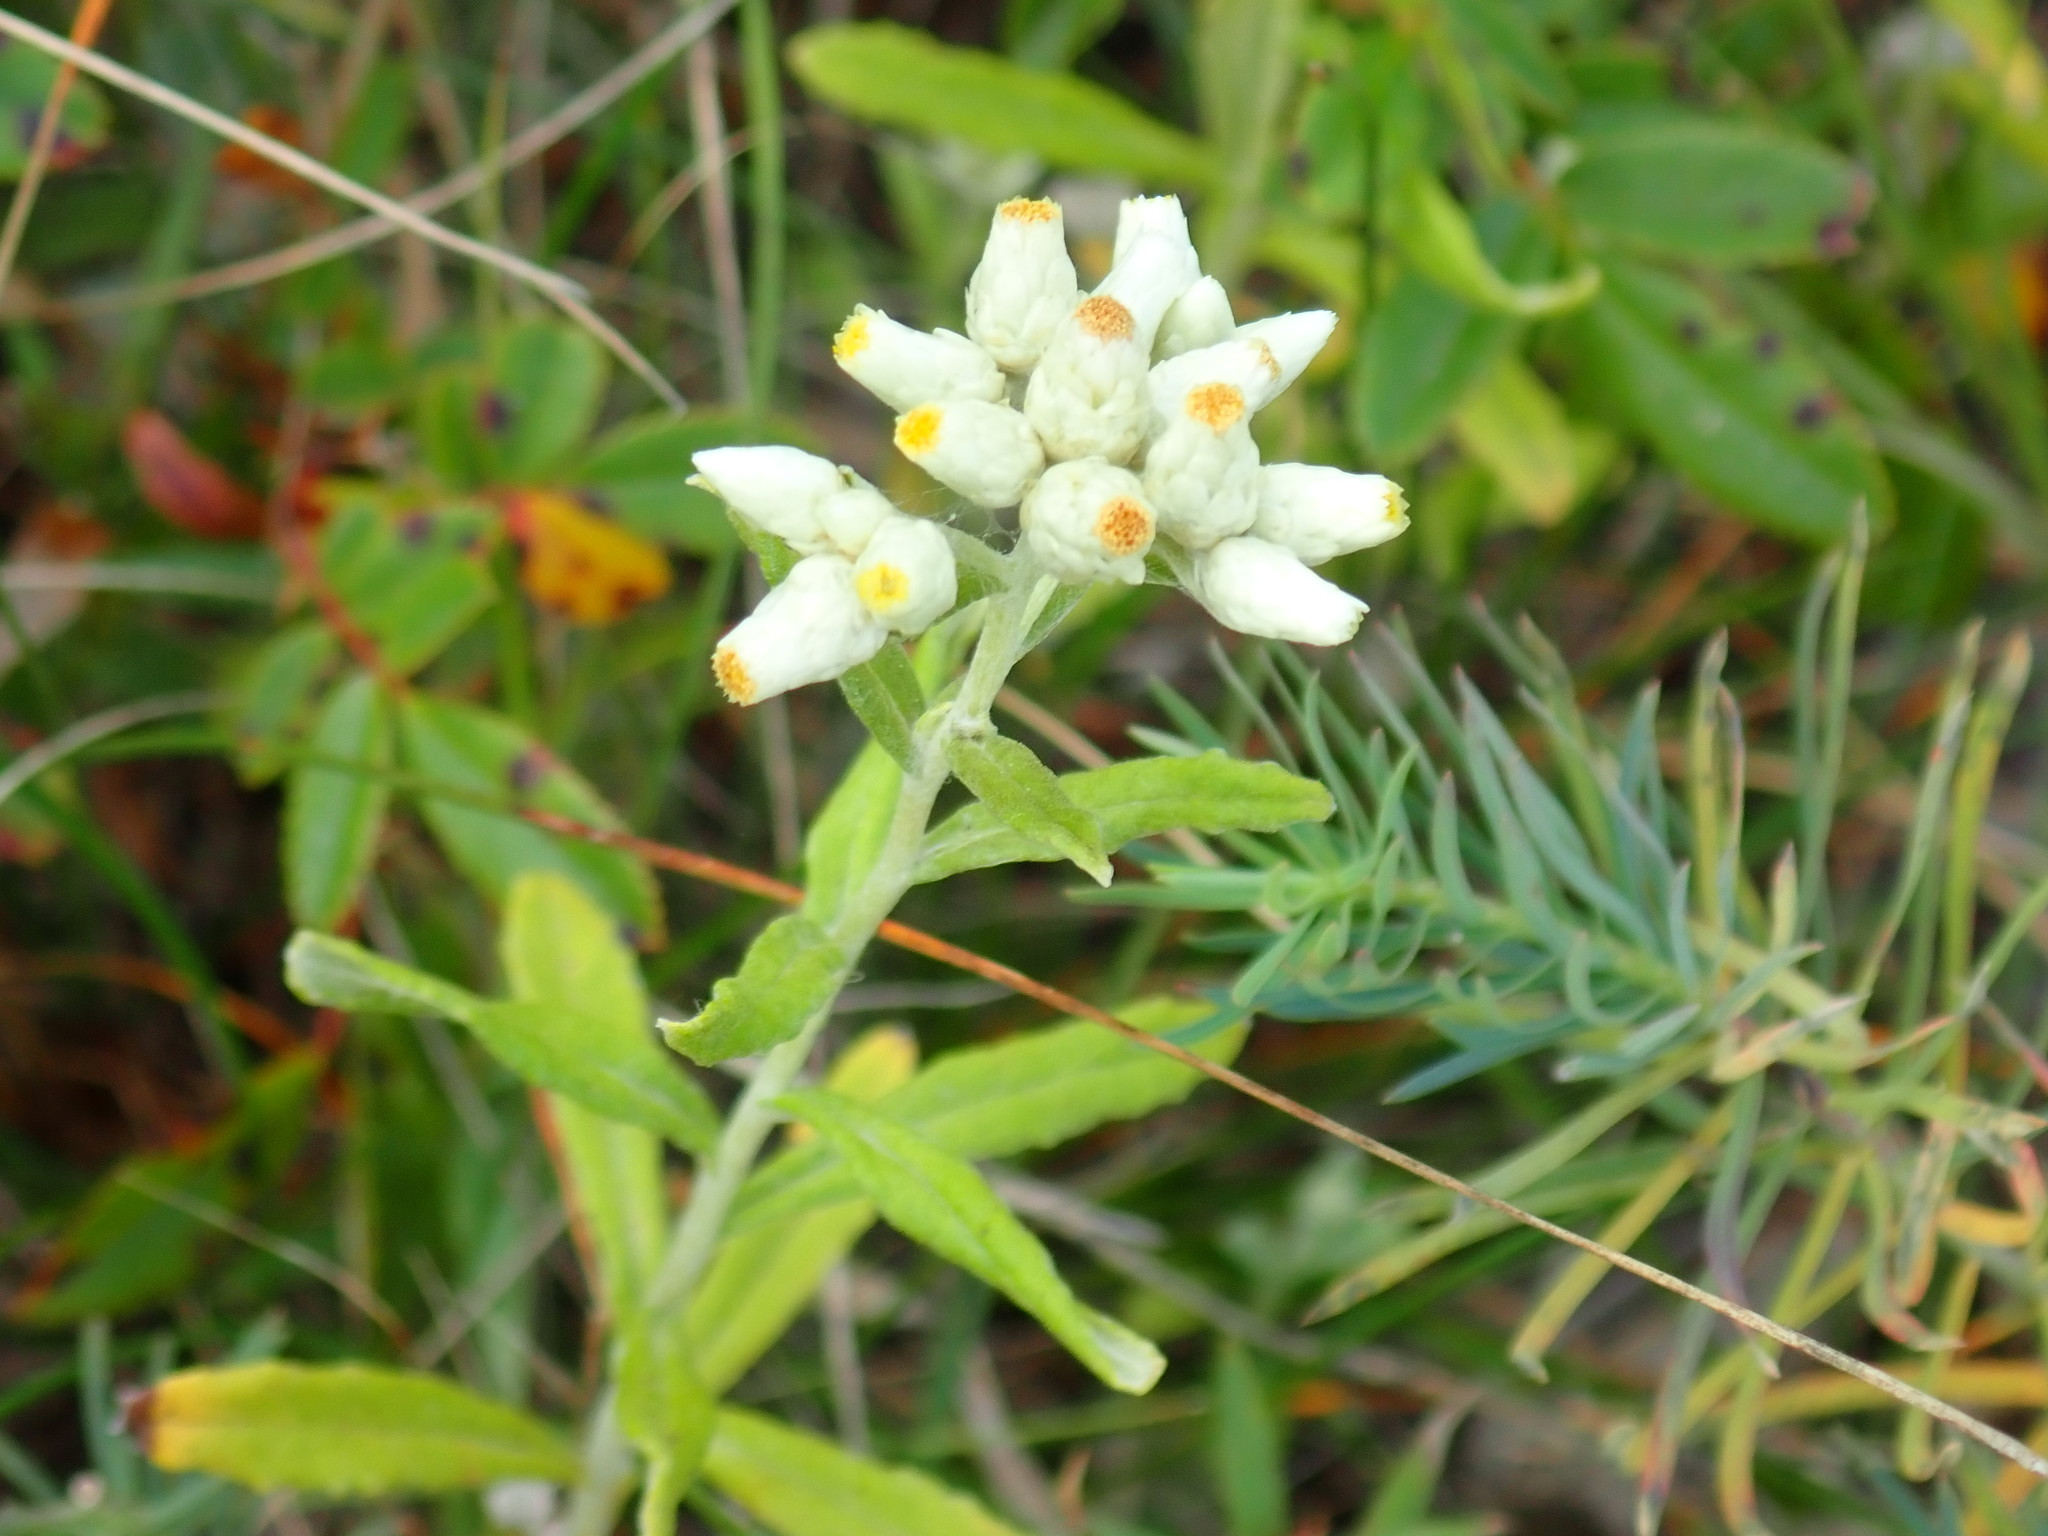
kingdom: Plantae
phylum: Tracheophyta
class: Magnoliopsida
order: Asterales
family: Asteraceae
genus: Pseudognaphalium
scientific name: Pseudognaphalium obtusifolium
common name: Eastern rabbit-tobacco
